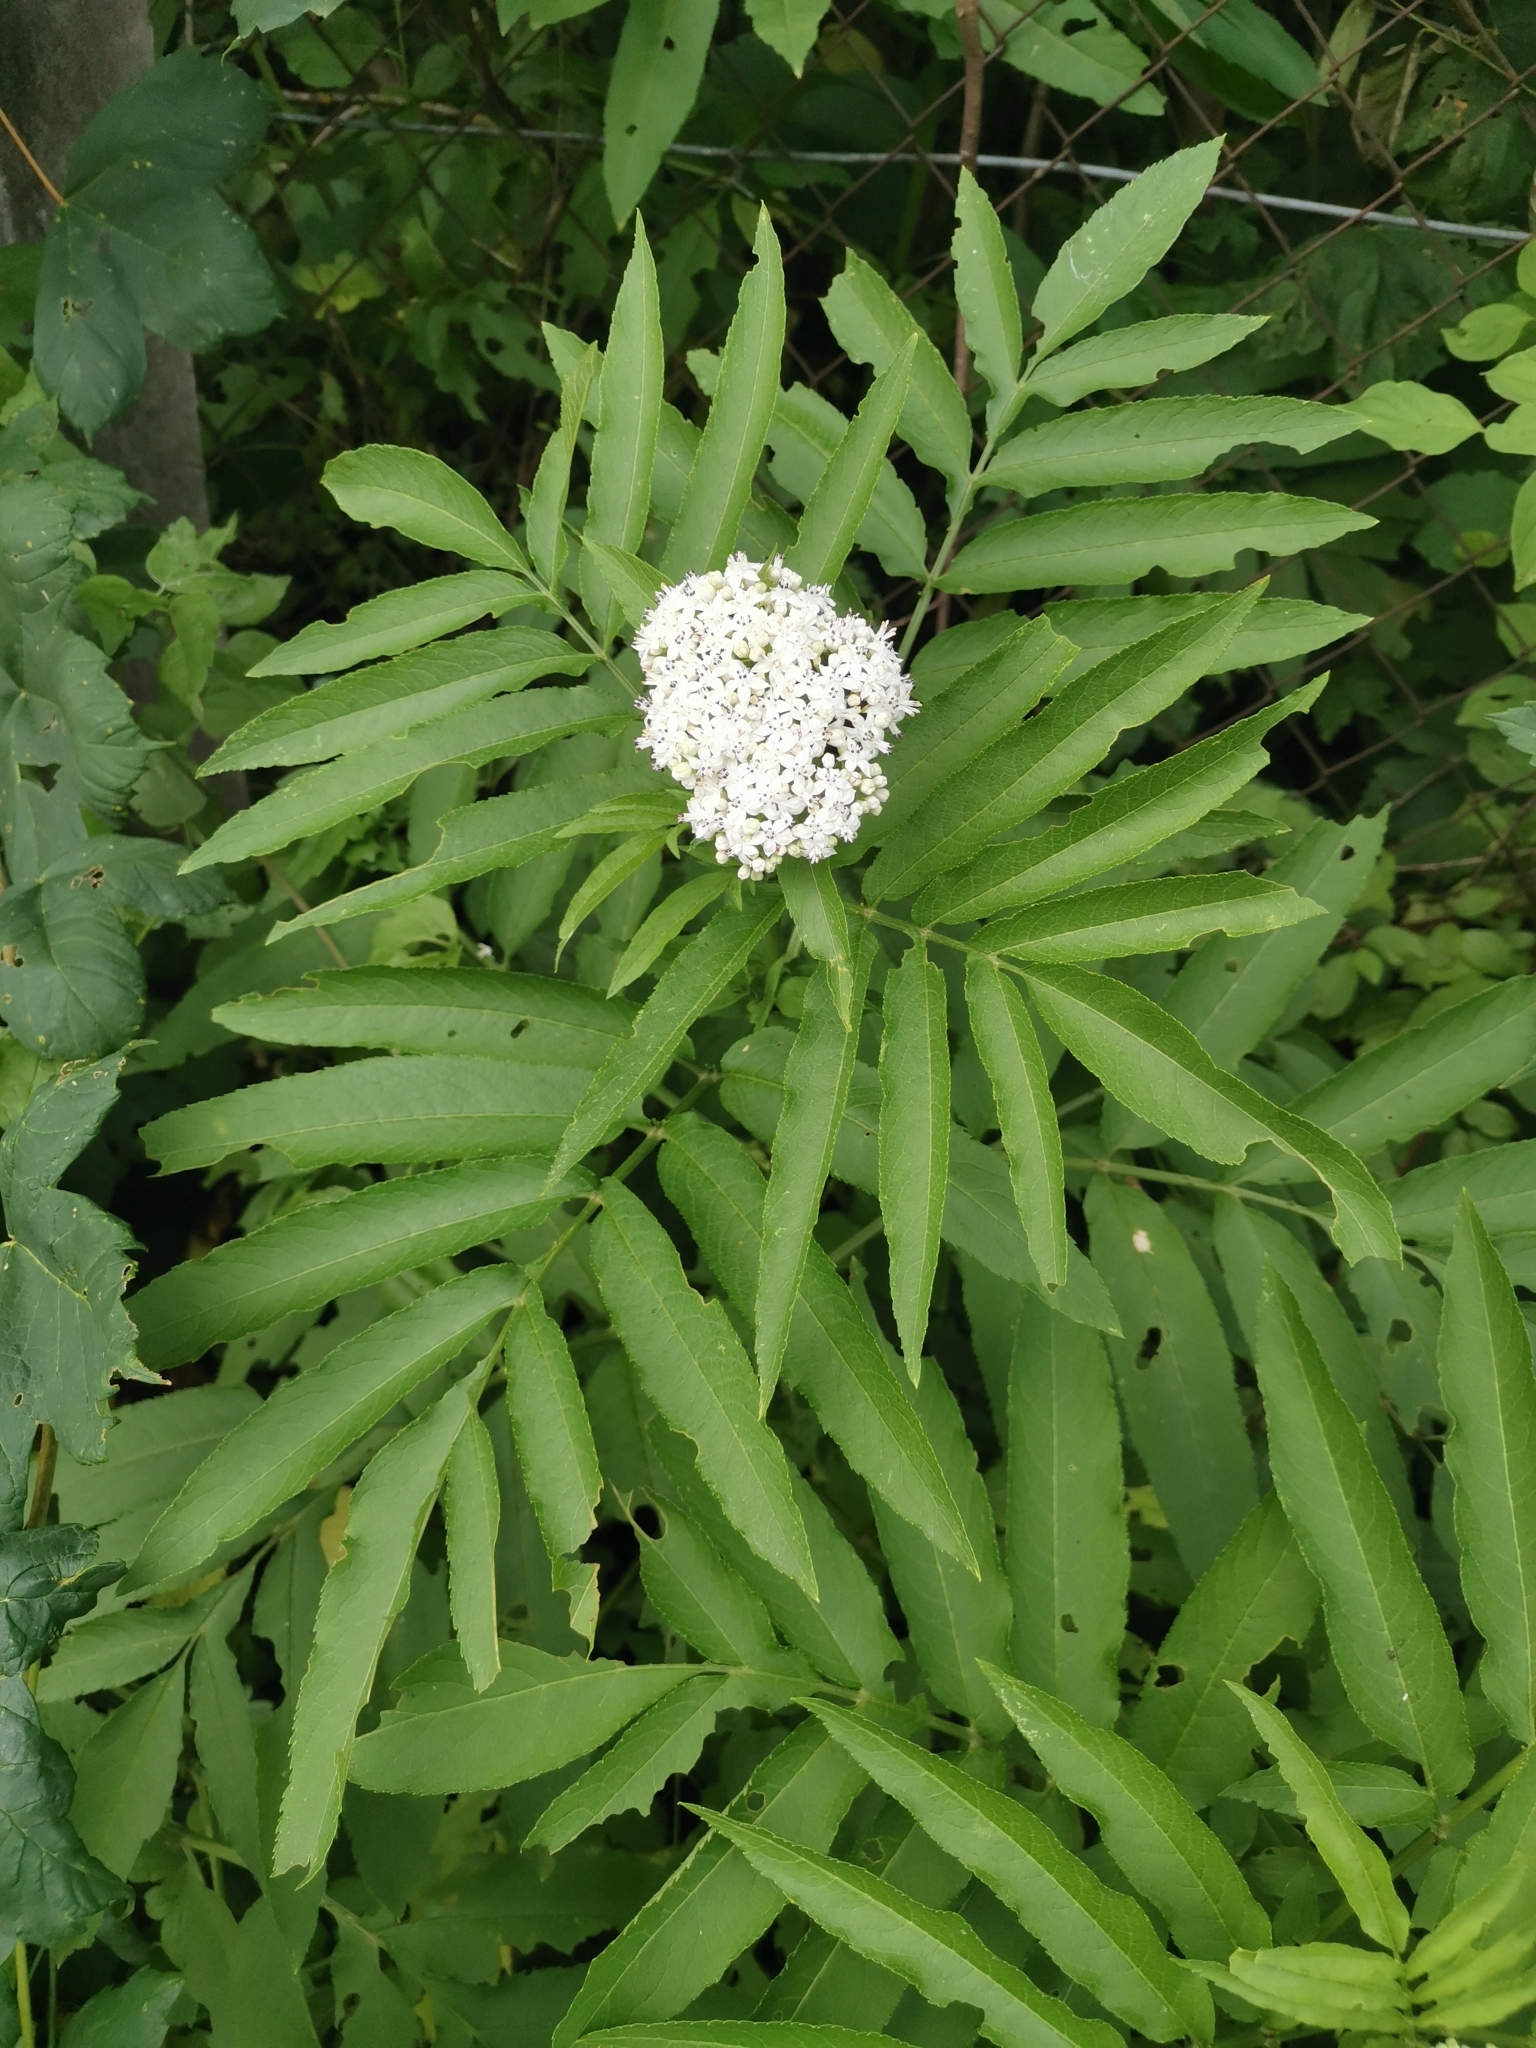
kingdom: Plantae
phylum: Tracheophyta
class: Magnoliopsida
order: Dipsacales
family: Viburnaceae
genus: Sambucus
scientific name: Sambucus ebulus
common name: Dwarf elder
